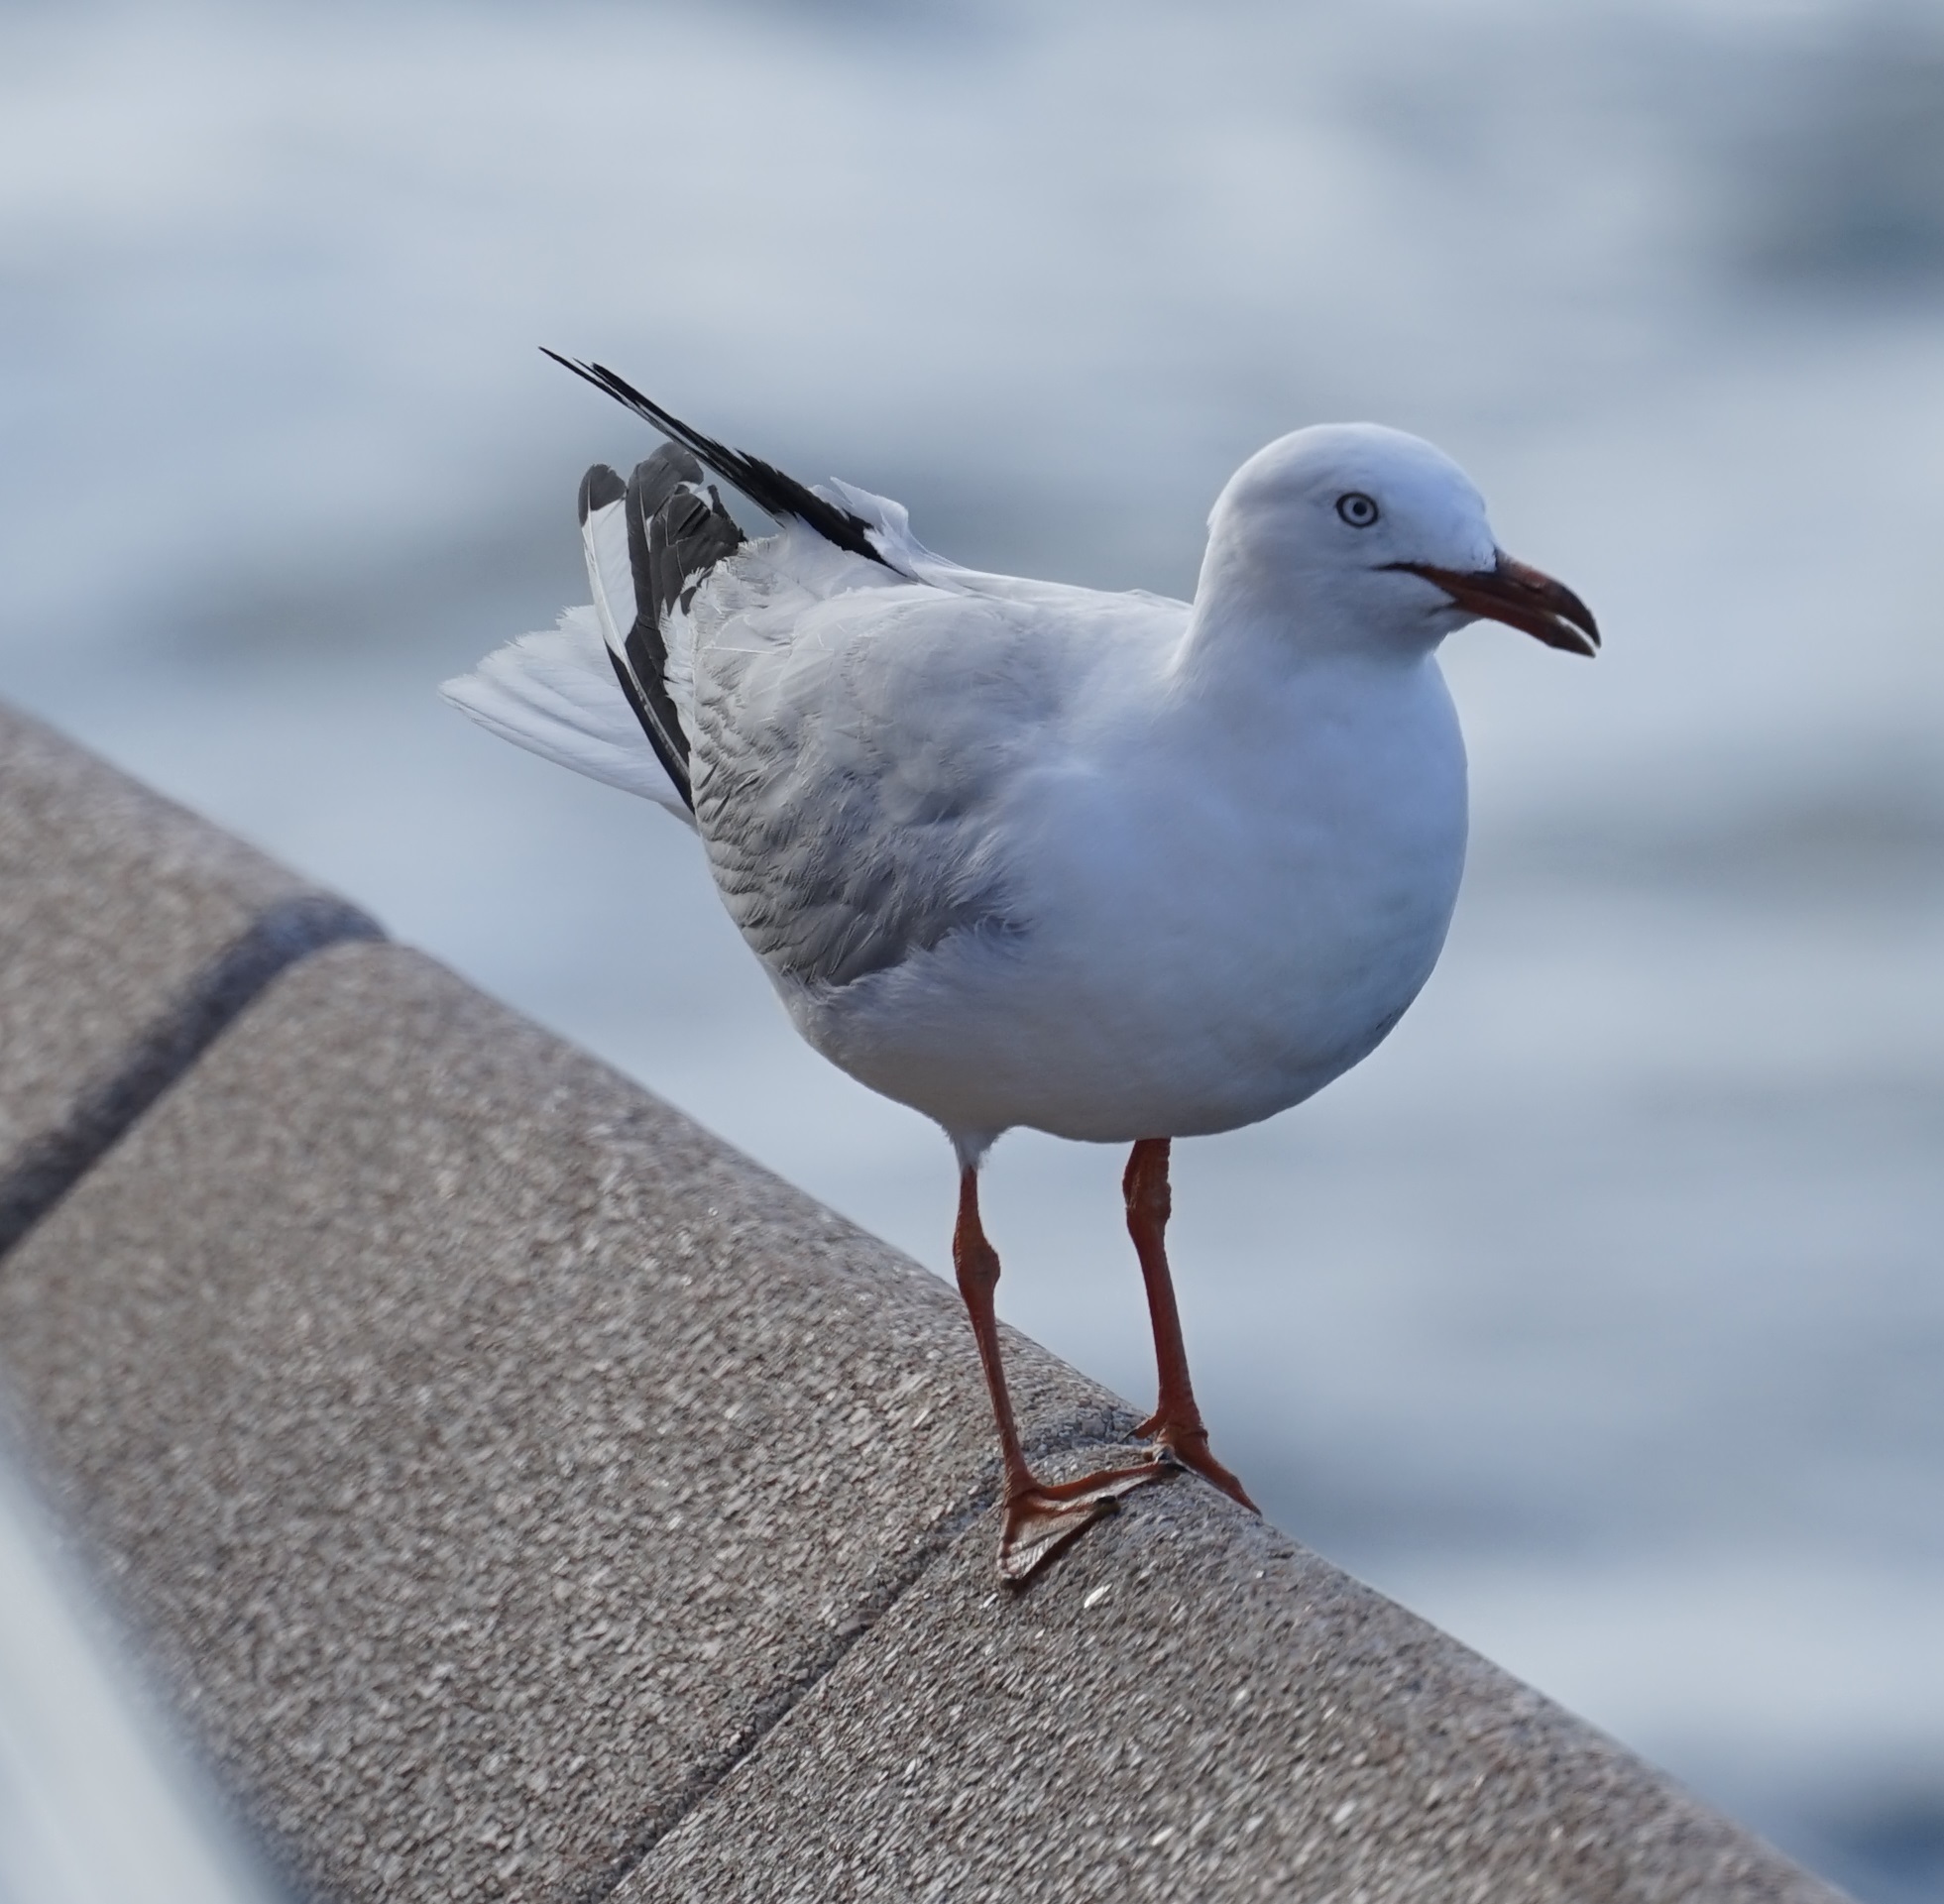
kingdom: Animalia
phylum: Chordata
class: Aves
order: Charadriiformes
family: Laridae
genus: Chroicocephalus
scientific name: Chroicocephalus novaehollandiae
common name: Silver gull
